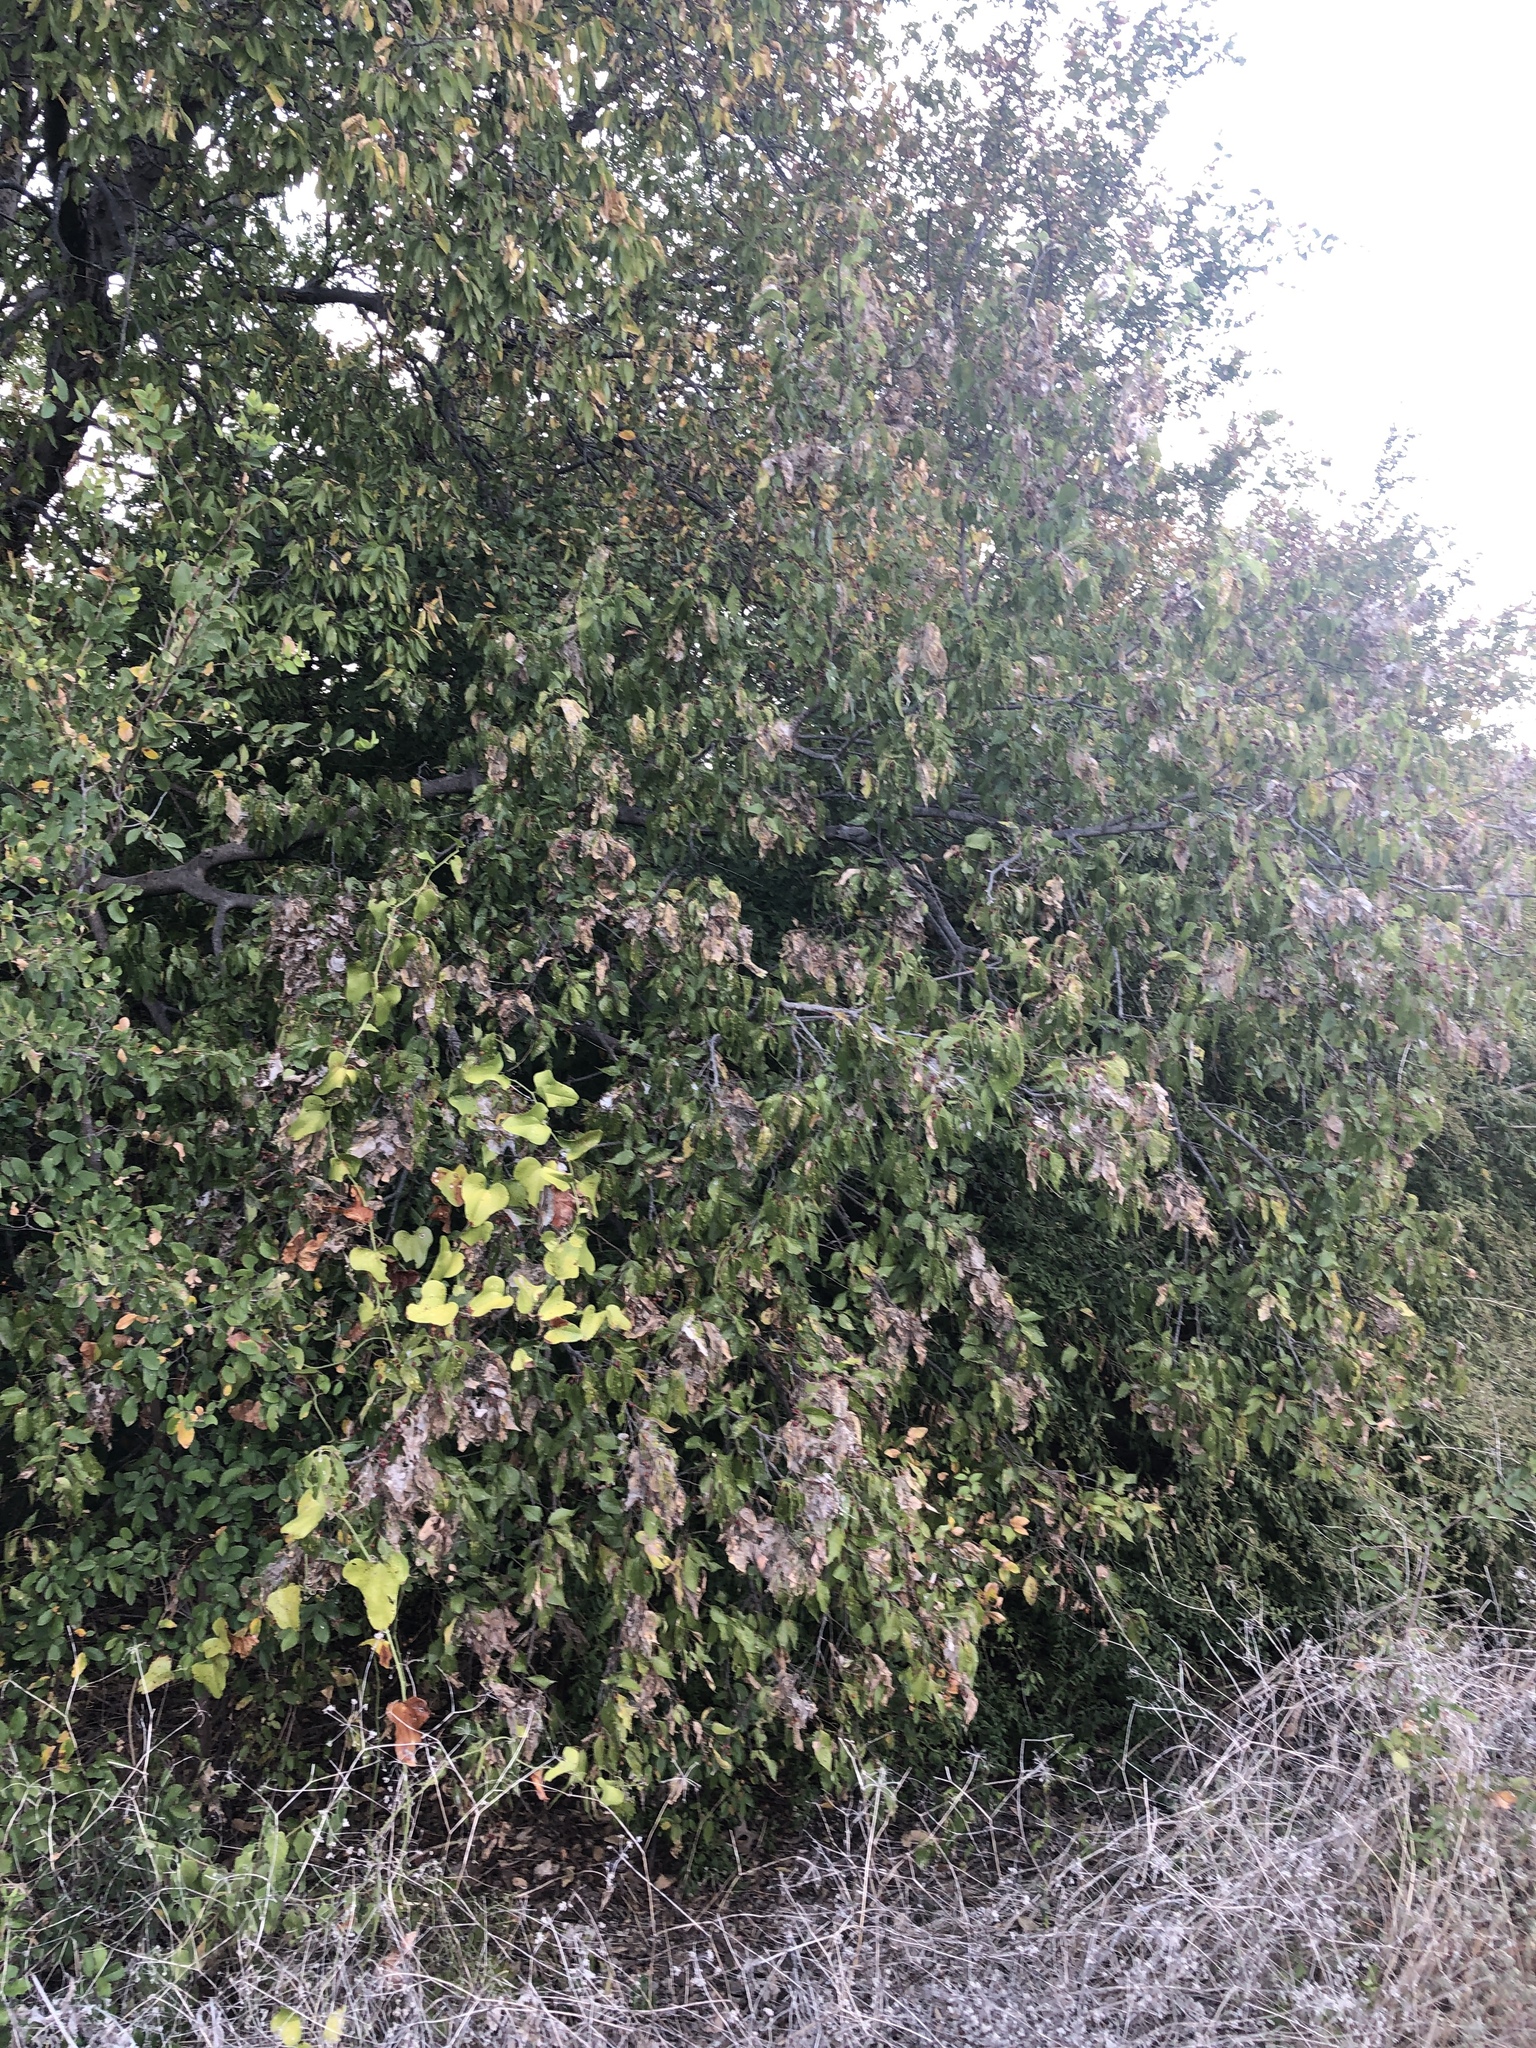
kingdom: Plantae
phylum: Tracheophyta
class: Magnoliopsida
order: Rosales
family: Cannabaceae
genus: Celtis
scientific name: Celtis laevigata
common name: Sugarberry
